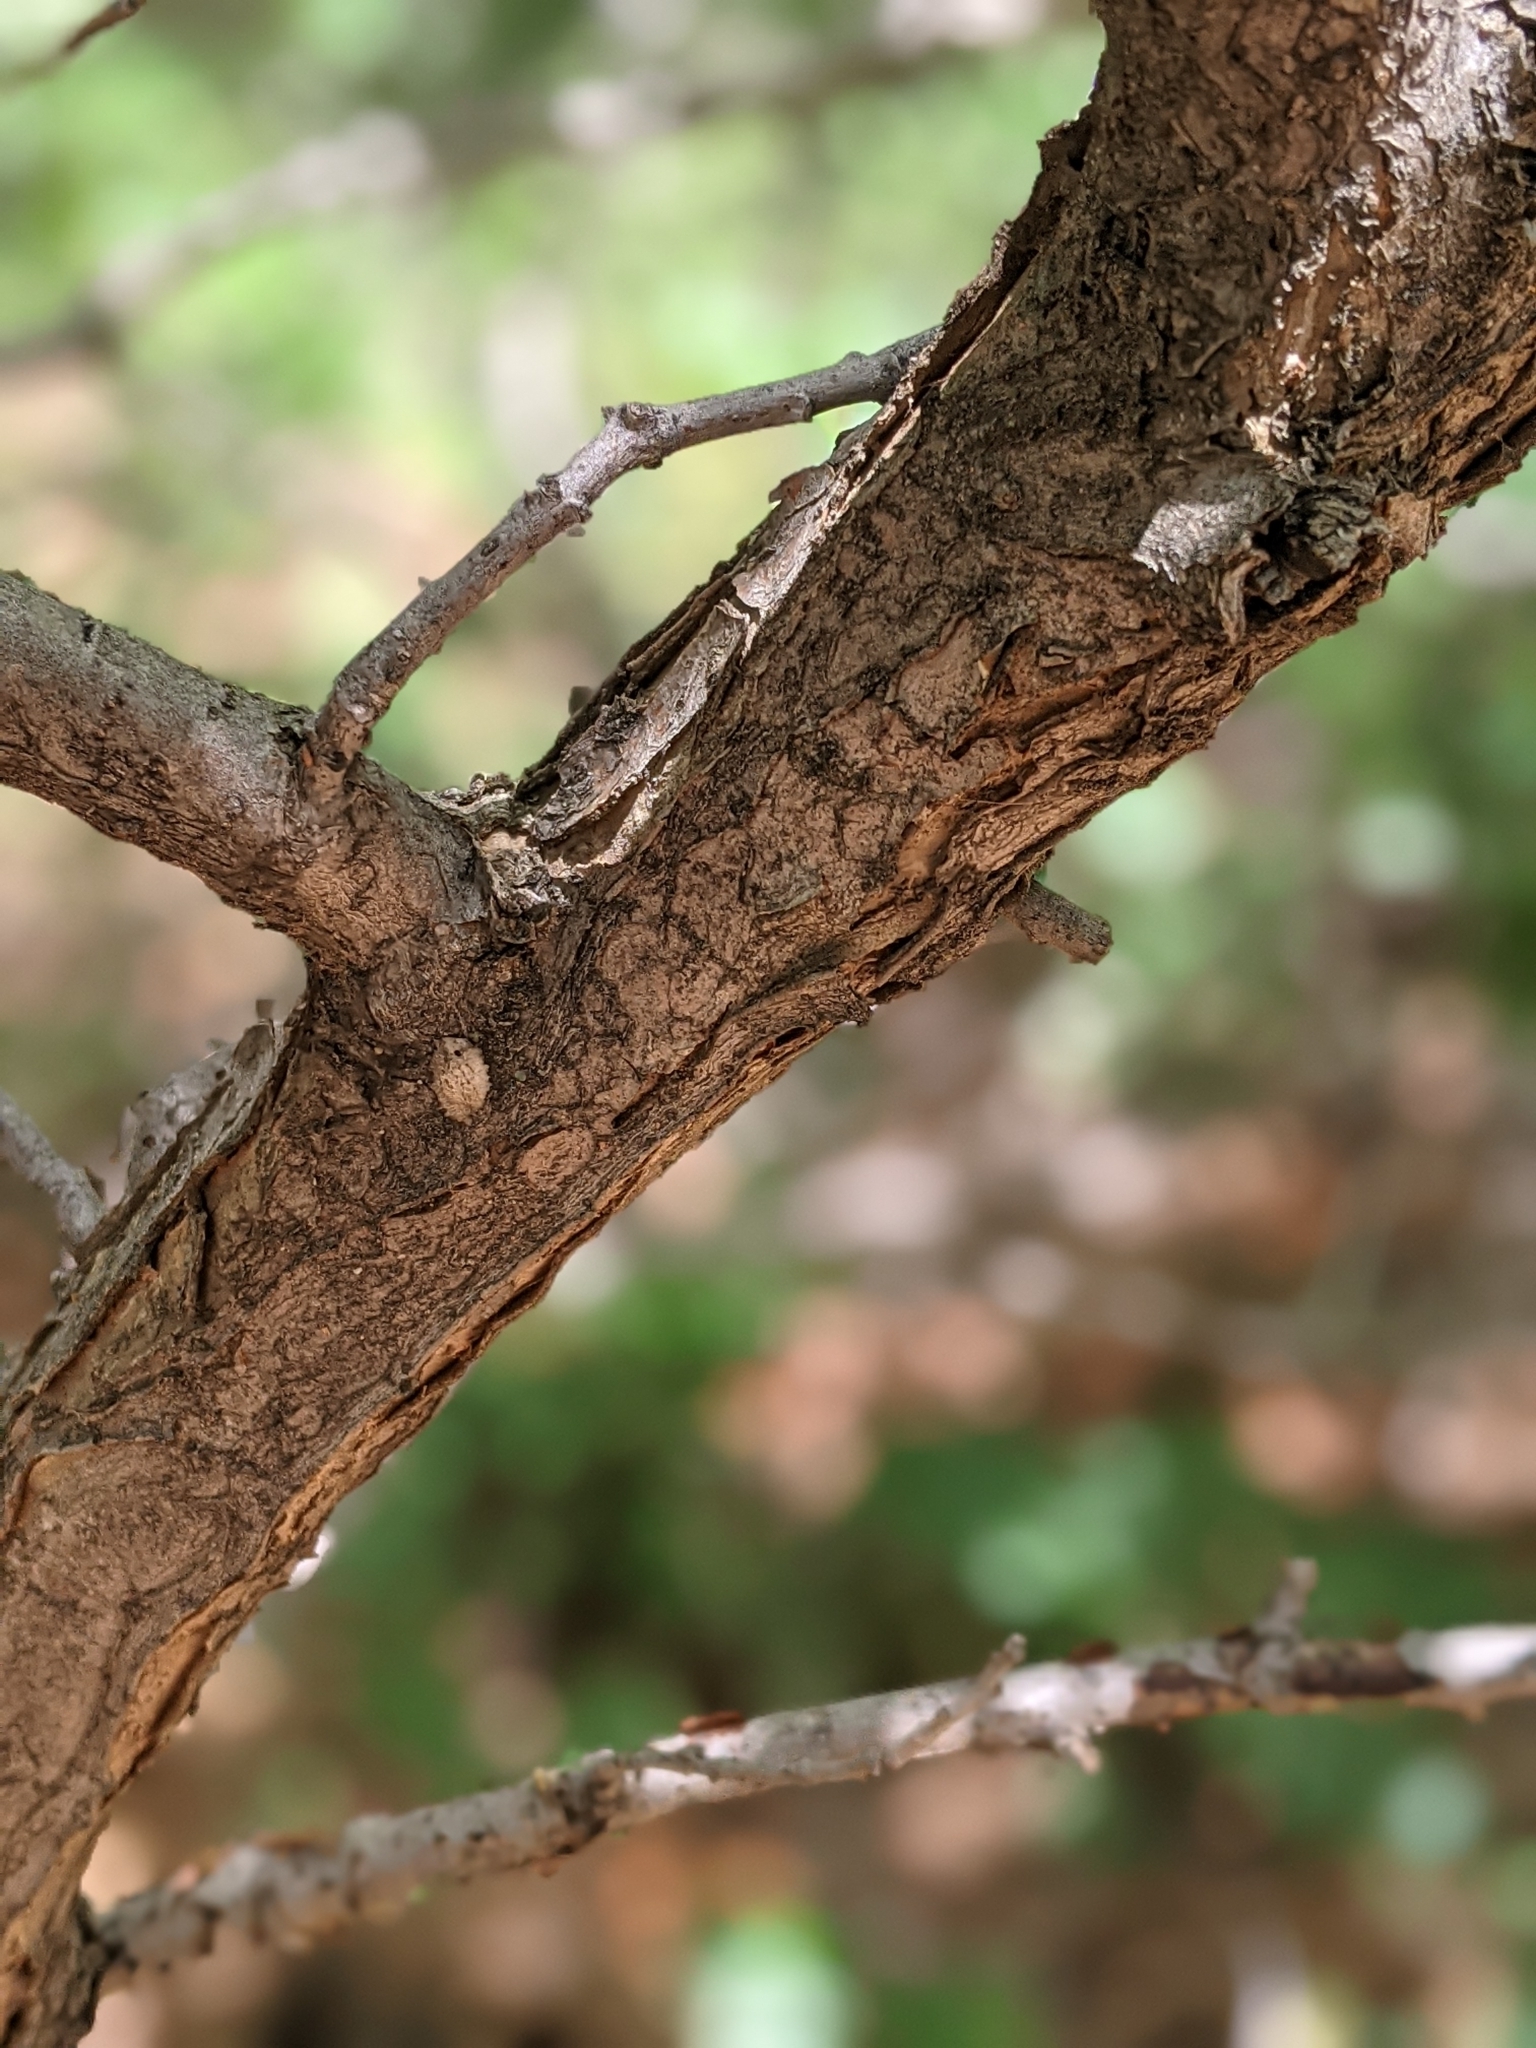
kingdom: Plantae
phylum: Tracheophyta
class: Magnoliopsida
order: Fagales
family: Fagaceae
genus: Quercus
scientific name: Quercus gambelii
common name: Gambel oak
